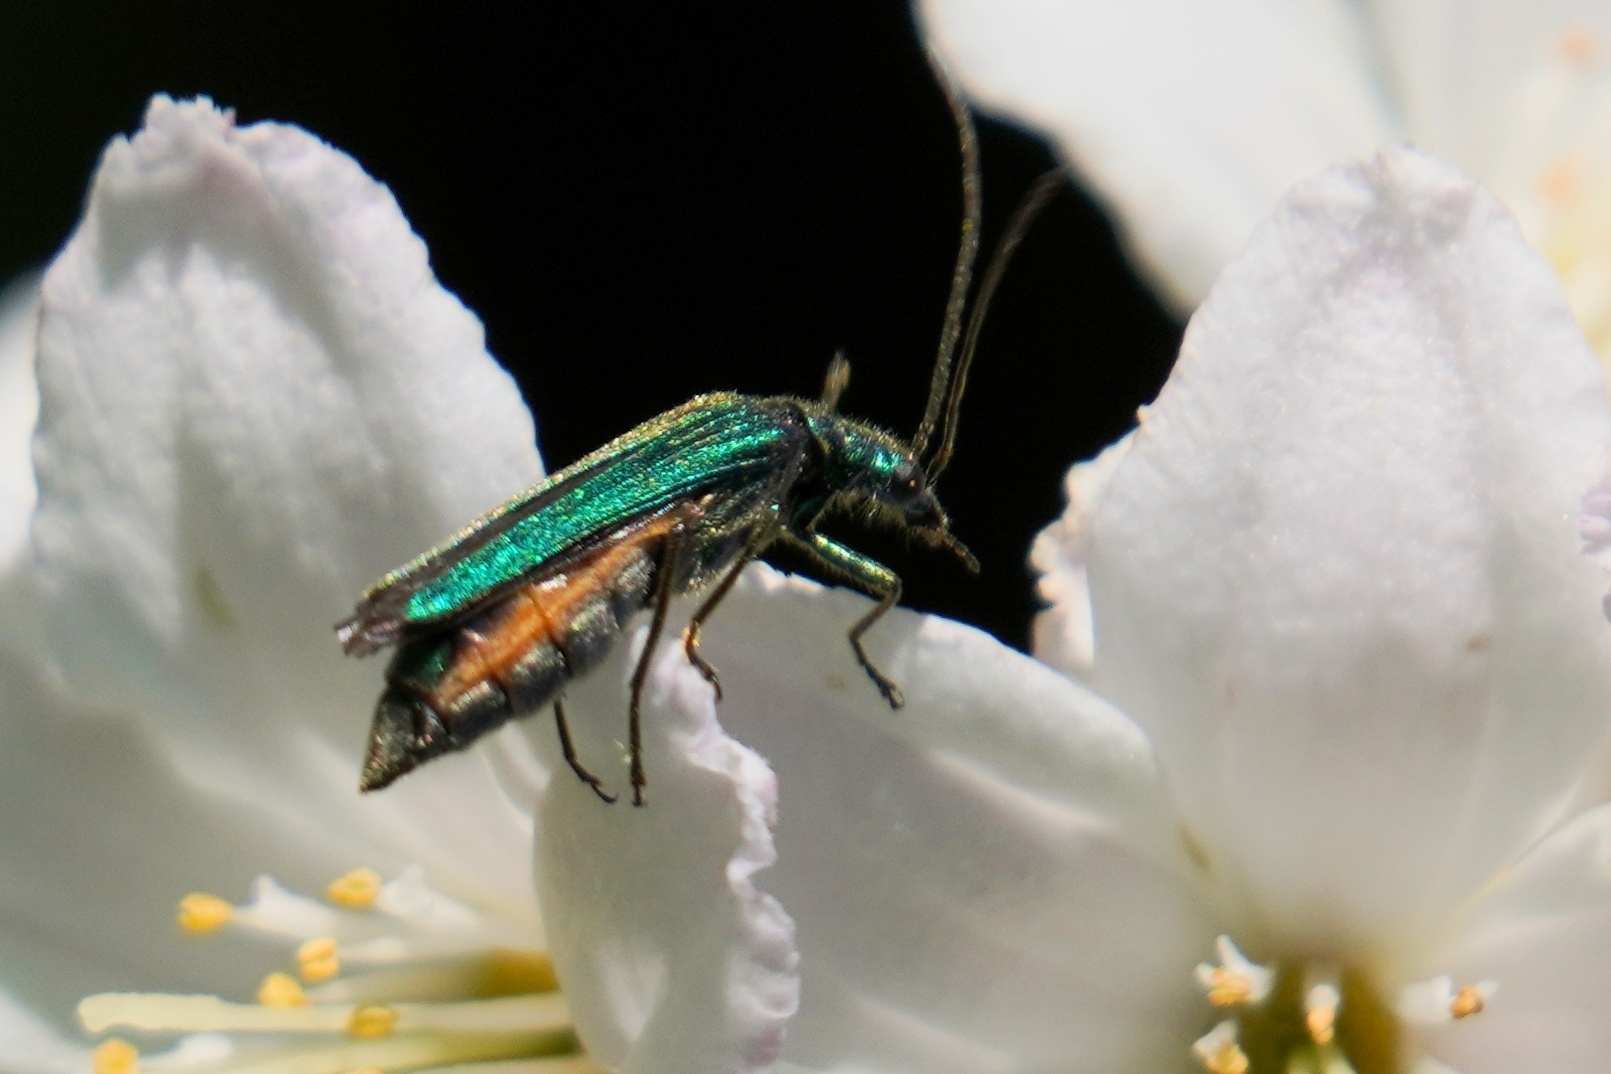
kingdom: Animalia
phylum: Arthropoda
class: Insecta
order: Coleoptera
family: Oedemeridae
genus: Oedemera
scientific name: Oedemera nobilis
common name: Swollen-thighed beetle
